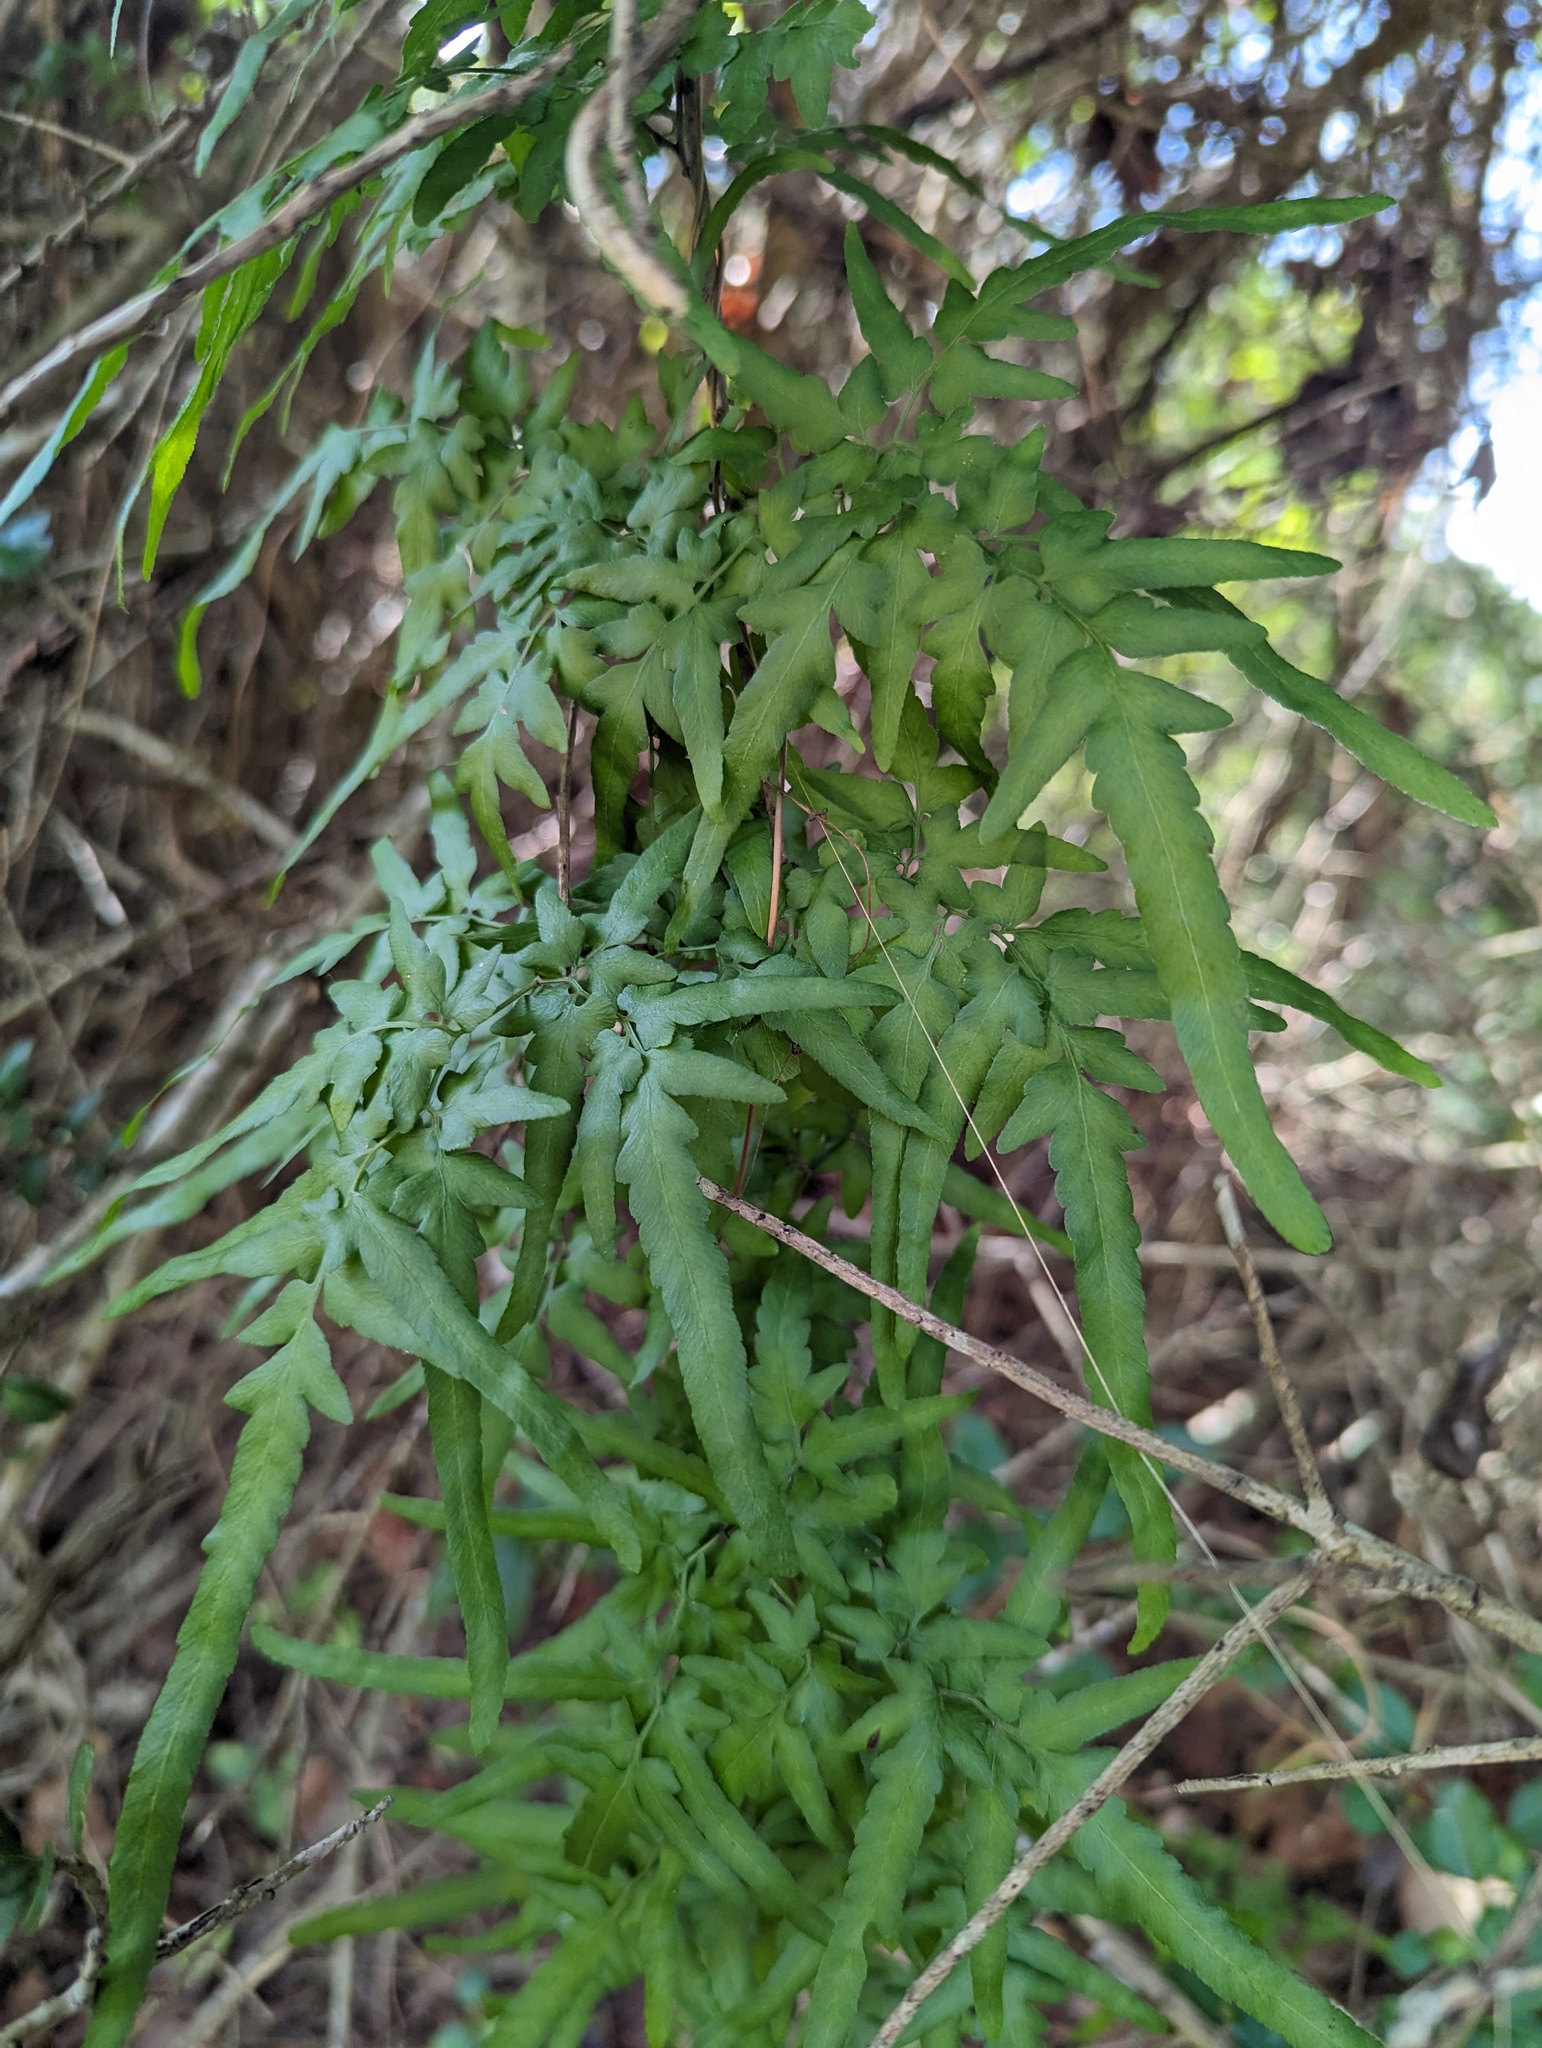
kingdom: Plantae
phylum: Tracheophyta
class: Polypodiopsida
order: Schizaeales
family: Lygodiaceae
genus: Lygodium
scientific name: Lygodium japonicum
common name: Japanese climbing fern
